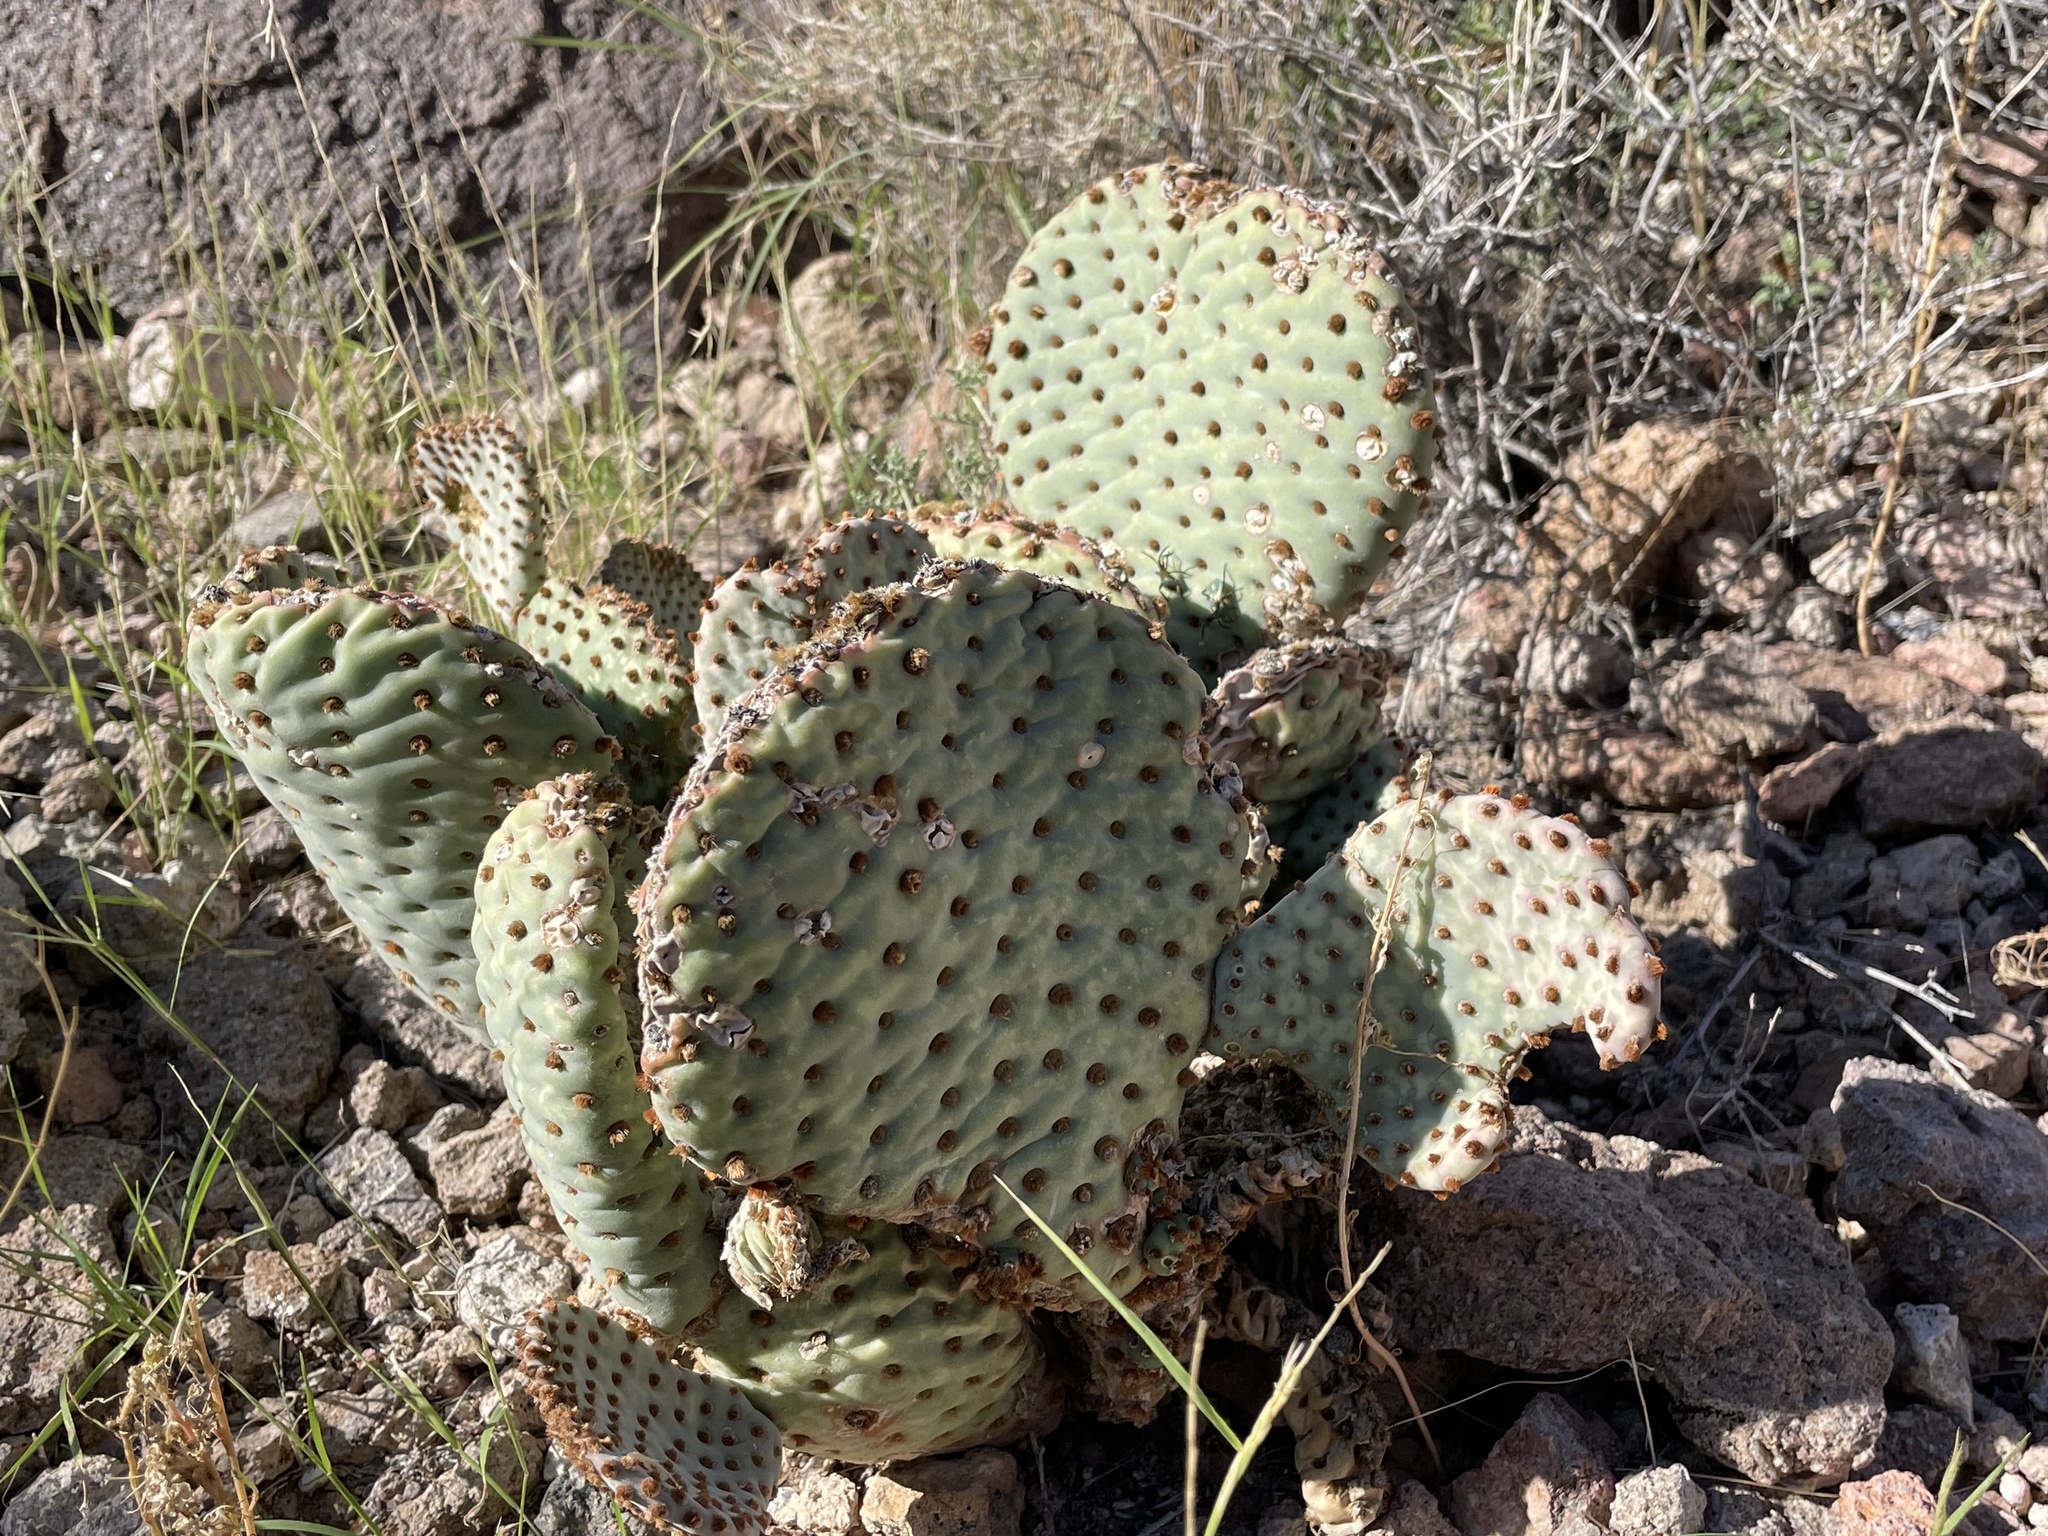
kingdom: Plantae
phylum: Tracheophyta
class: Magnoliopsida
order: Caryophyllales
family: Cactaceae
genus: Opuntia
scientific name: Opuntia basilaris
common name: Beavertail prickly-pear
